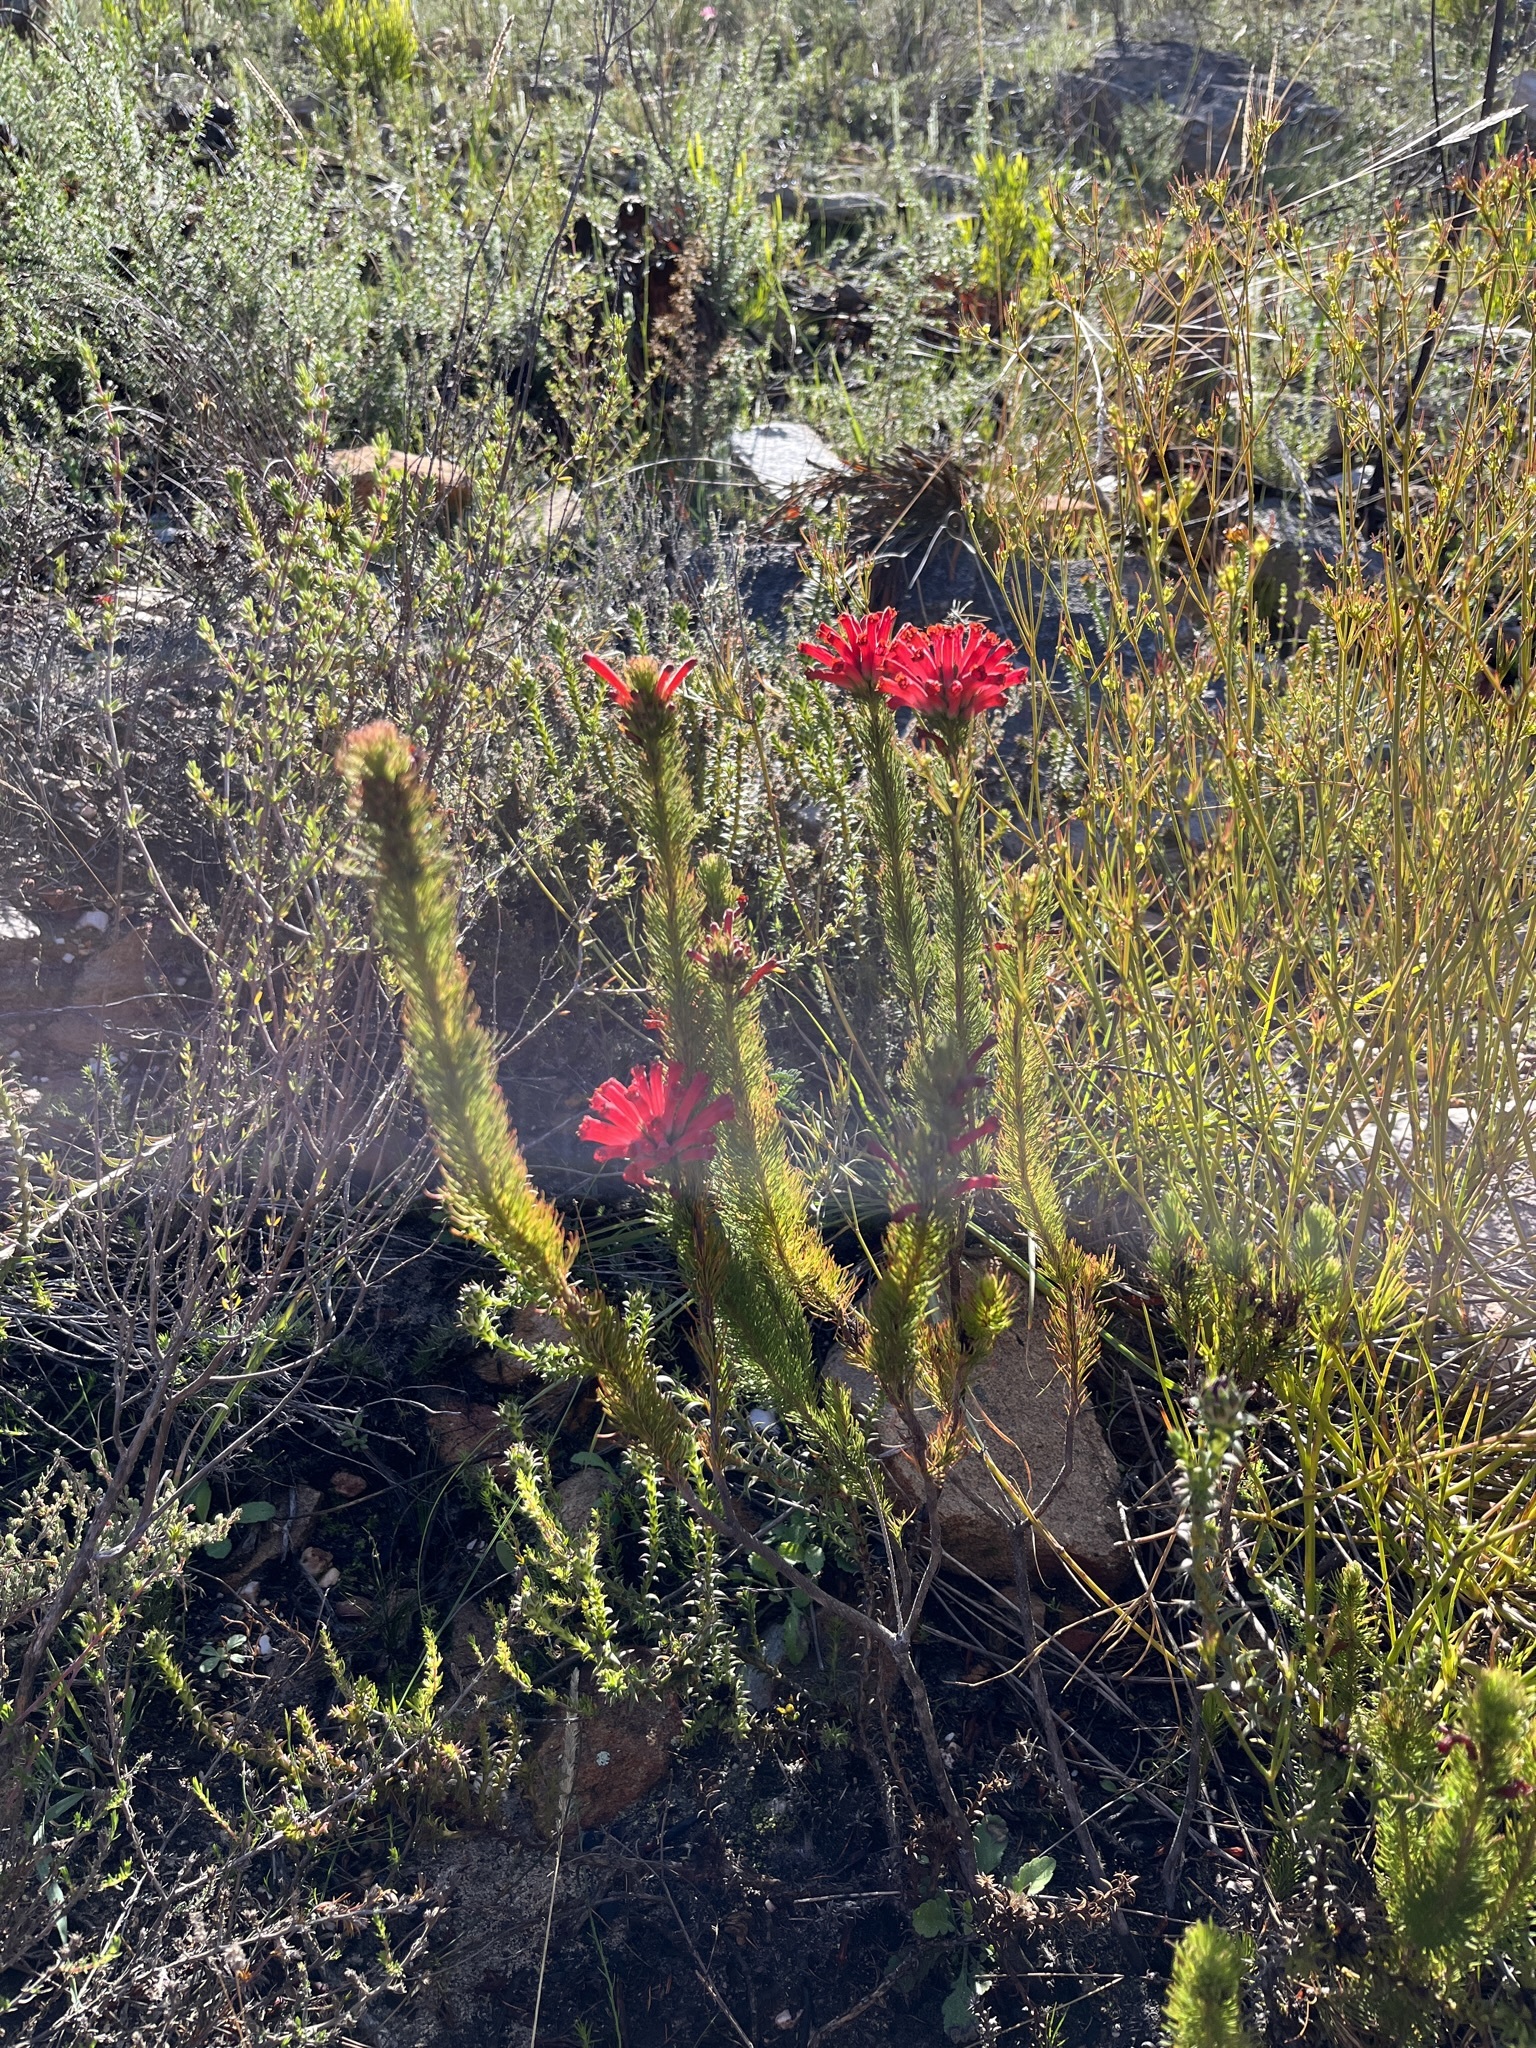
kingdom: Plantae
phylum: Tracheophyta
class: Magnoliopsida
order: Ericales
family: Ericaceae
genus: Erica
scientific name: Erica vestita
